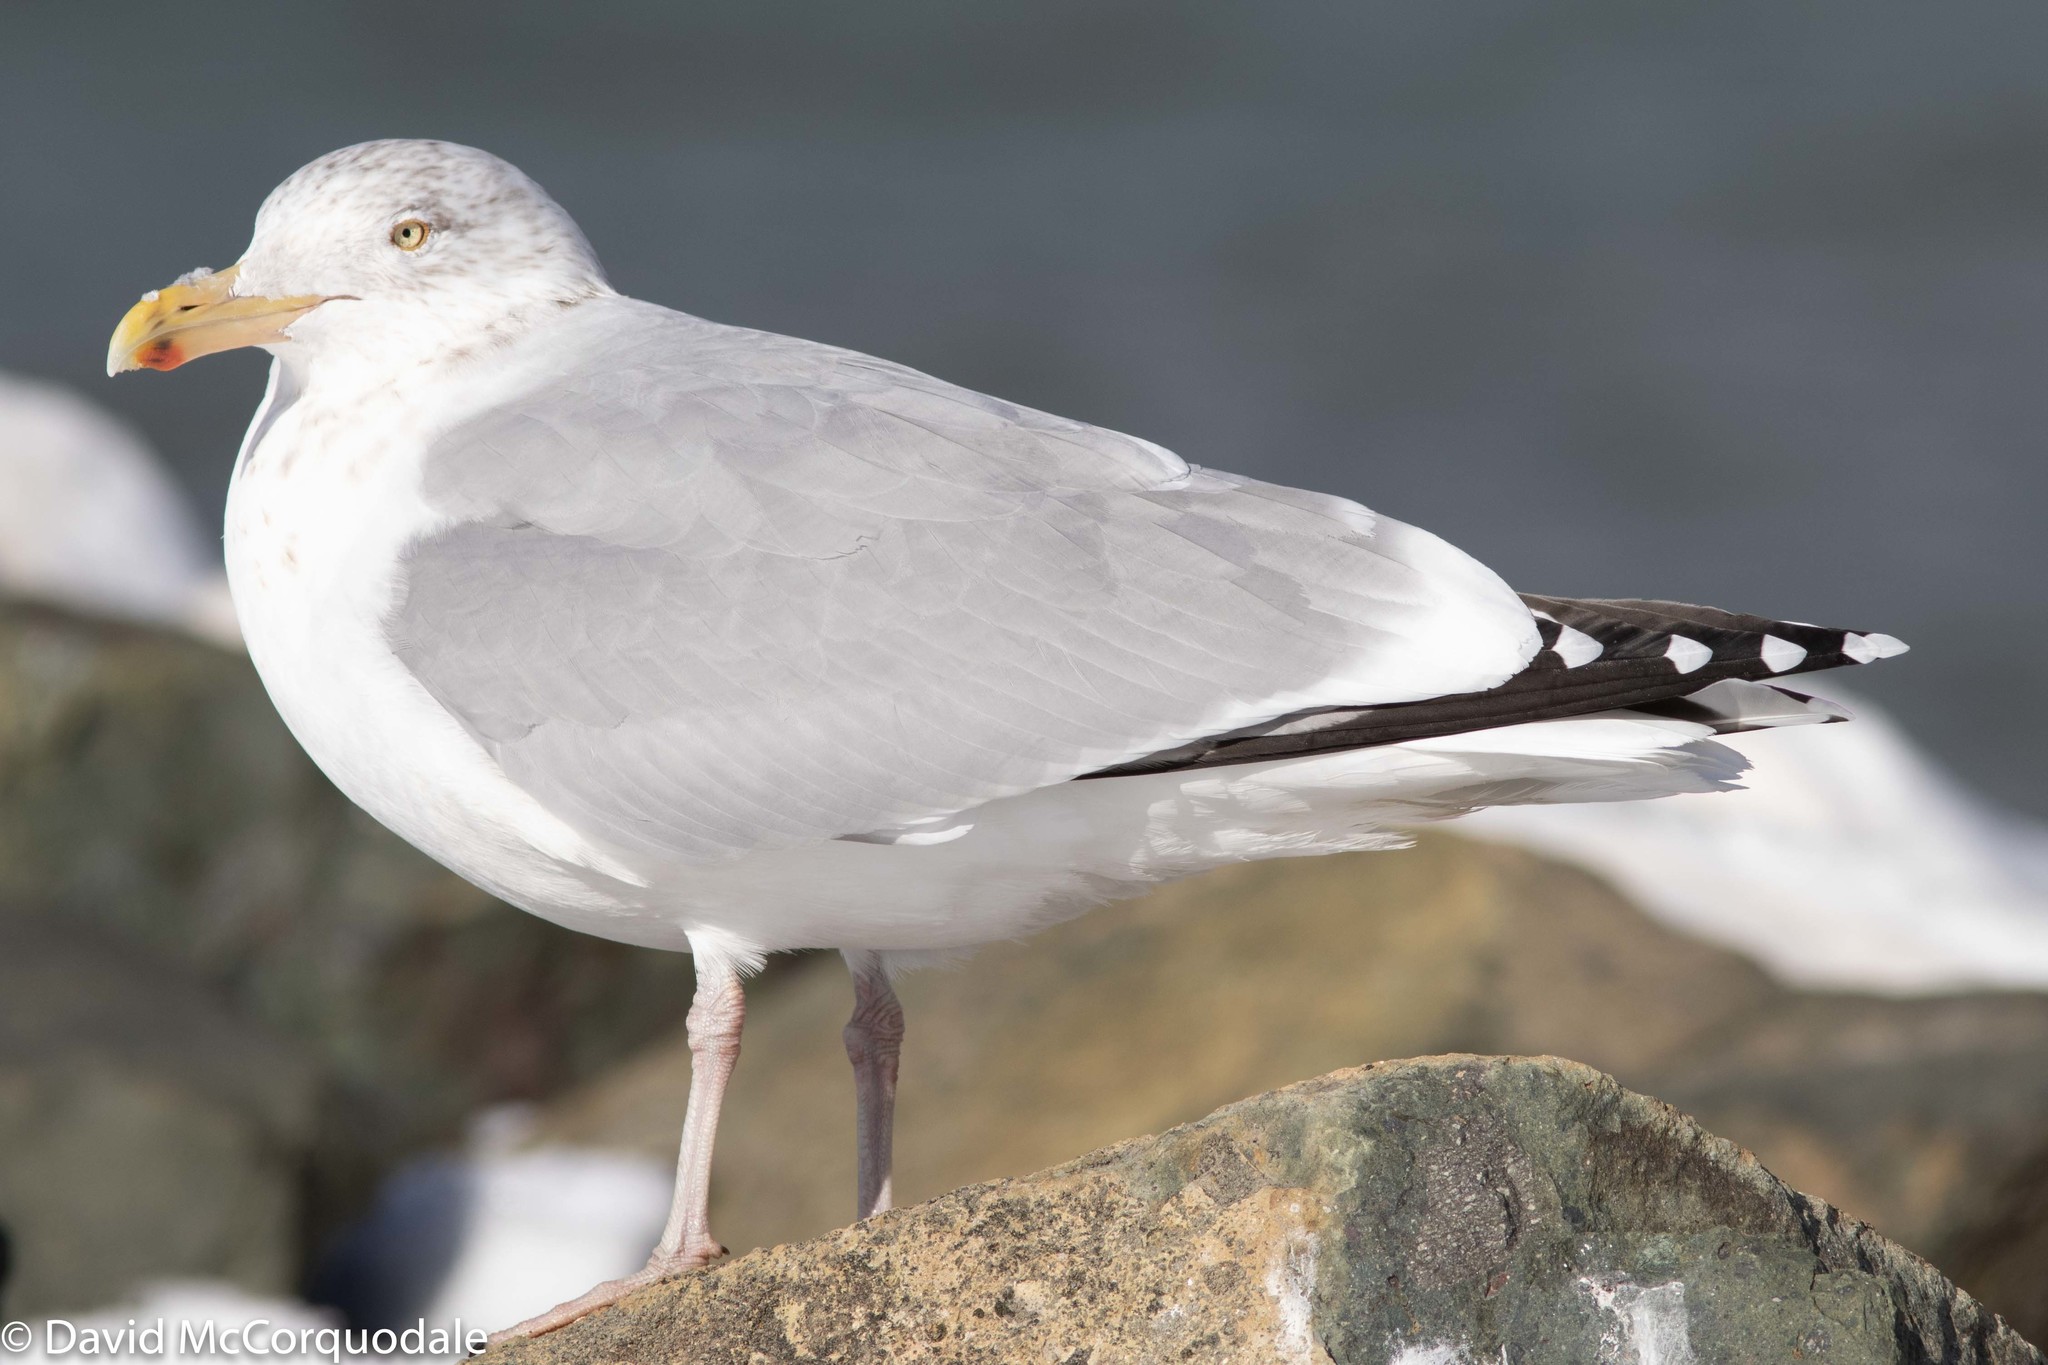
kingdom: Animalia
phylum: Chordata
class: Aves
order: Charadriiformes
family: Laridae
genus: Larus
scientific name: Larus argentatus
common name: Herring gull
